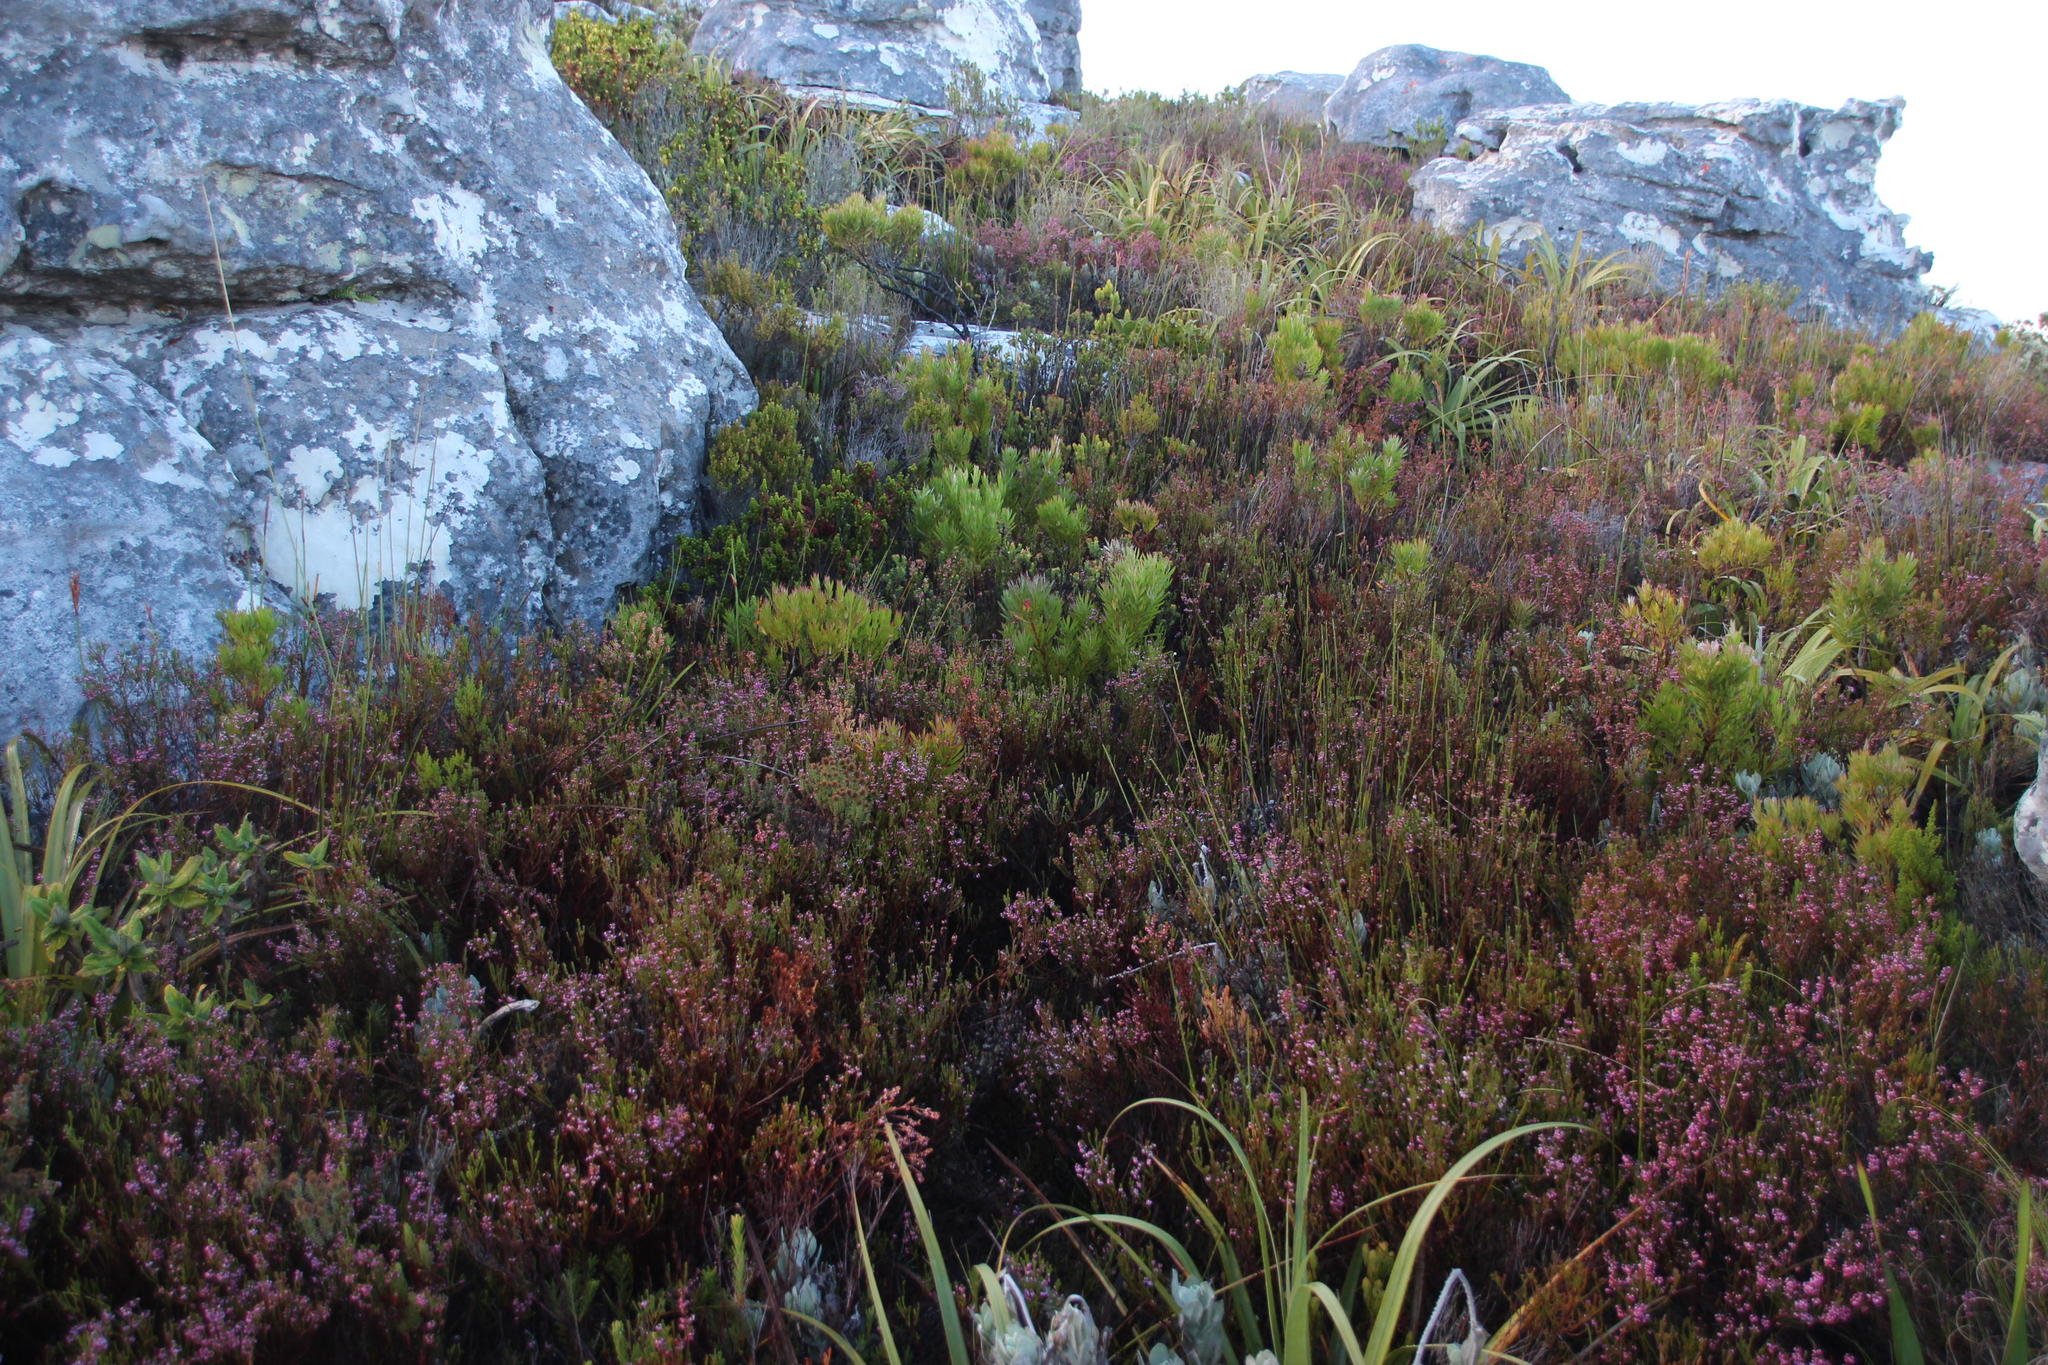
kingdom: Plantae
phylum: Tracheophyta
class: Magnoliopsida
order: Ericales
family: Ericaceae
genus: Erica
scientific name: Erica corifolia
